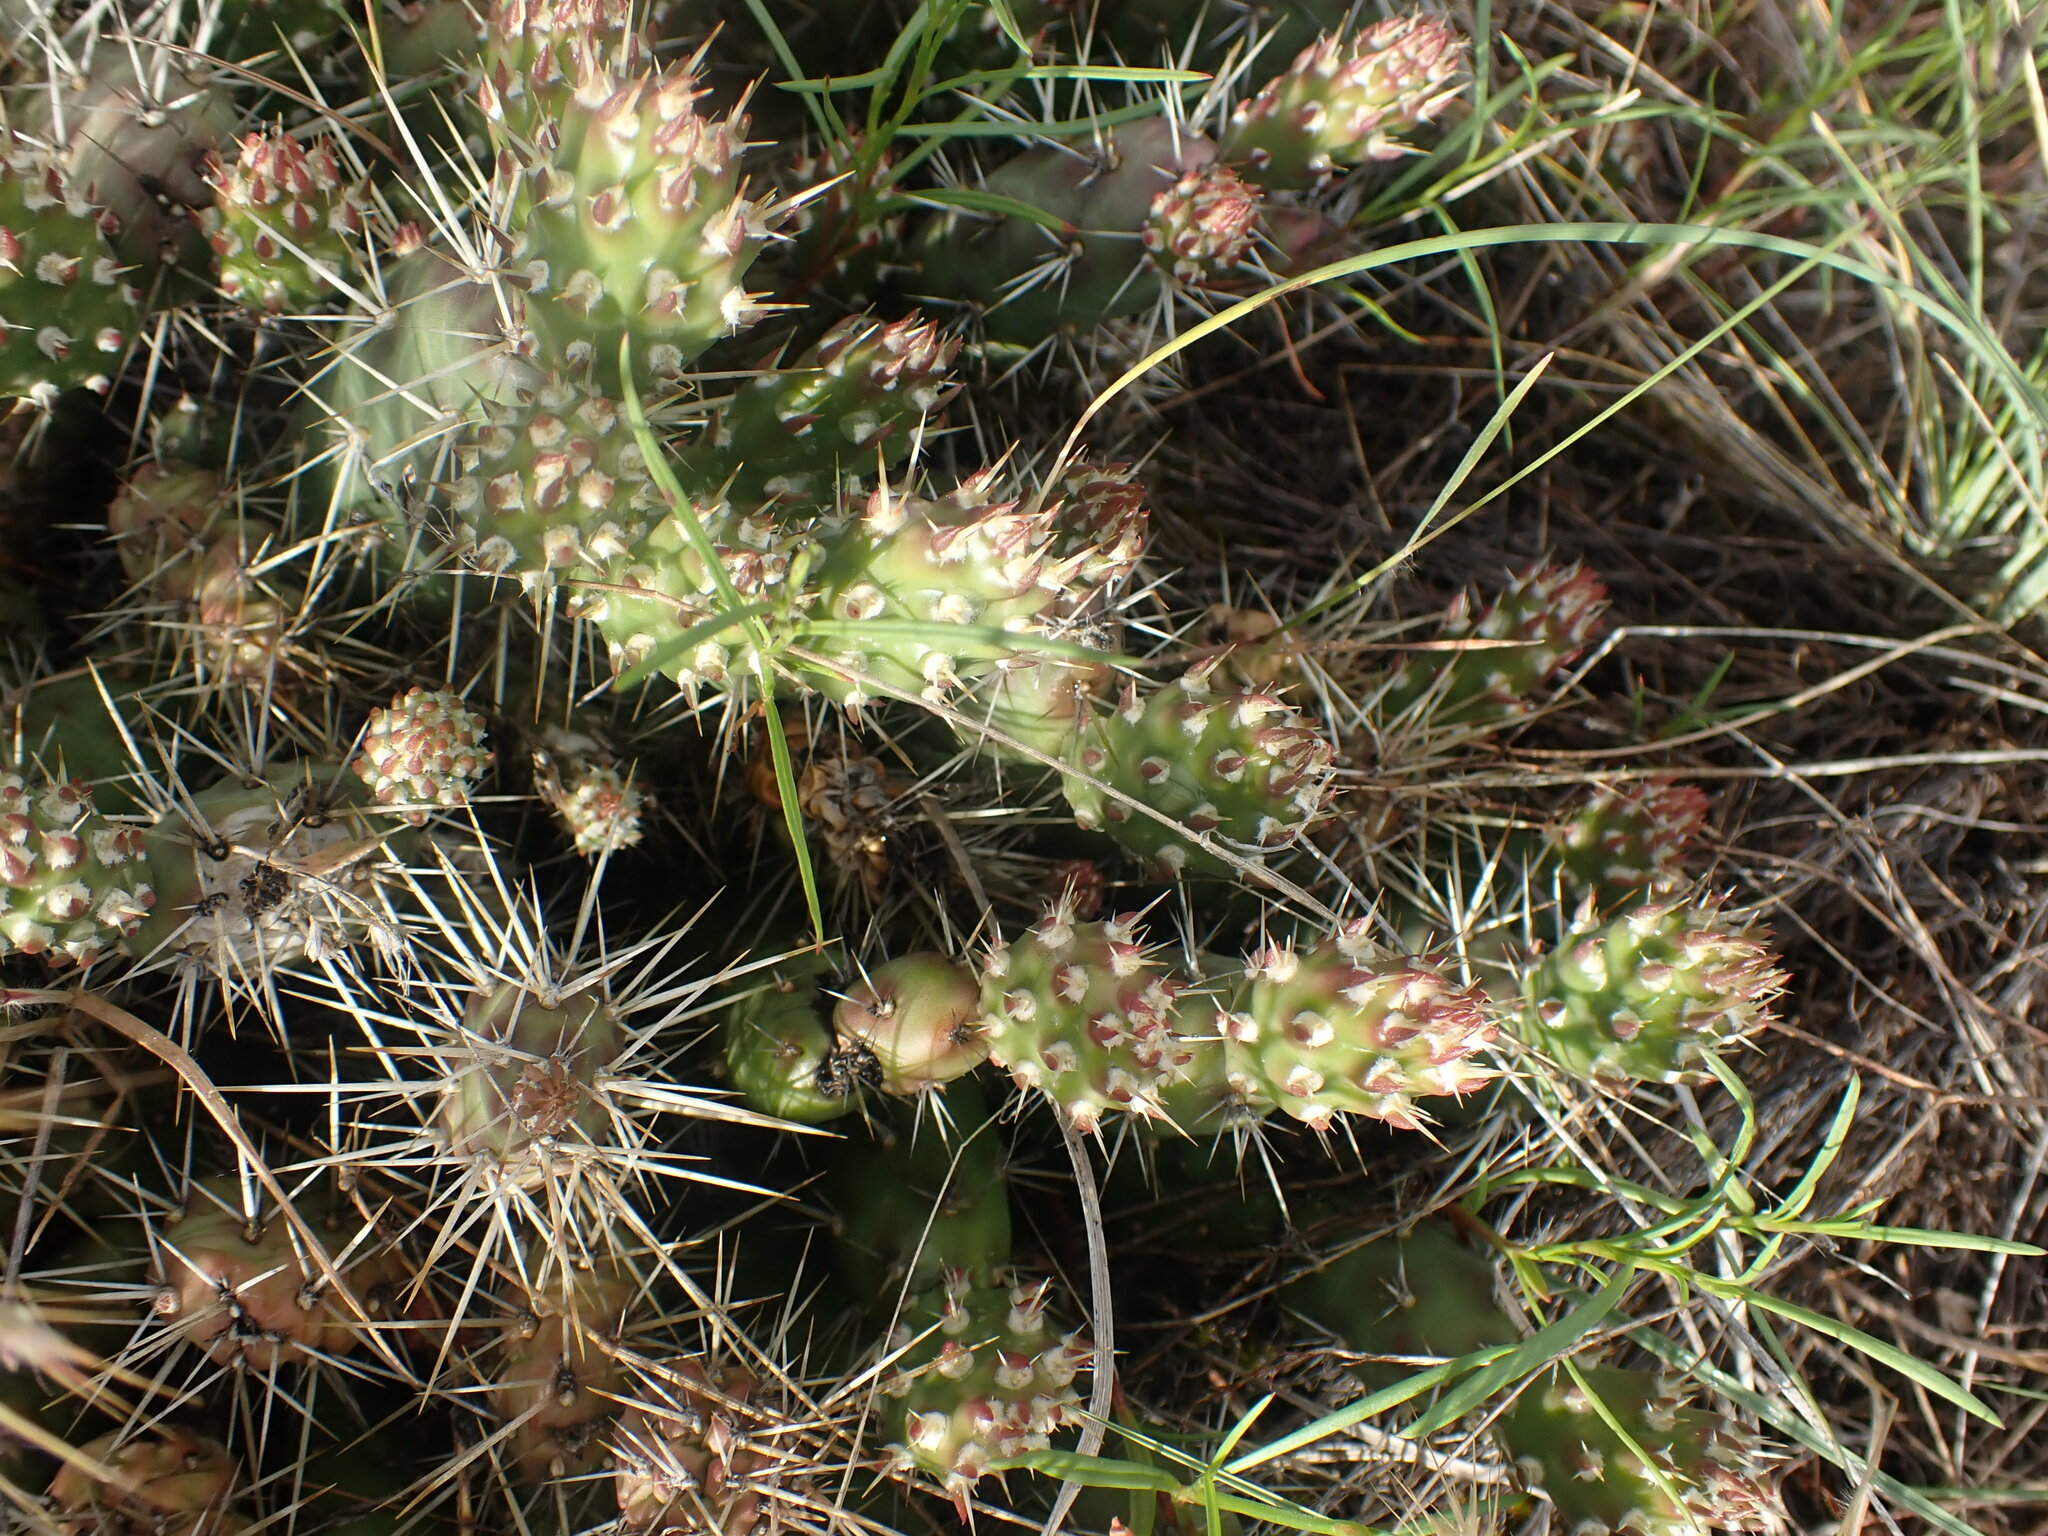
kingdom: Plantae
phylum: Tracheophyta
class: Magnoliopsida
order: Caryophyllales
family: Cactaceae
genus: Opuntia
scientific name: Opuntia fragilis
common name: Brittle cactus
